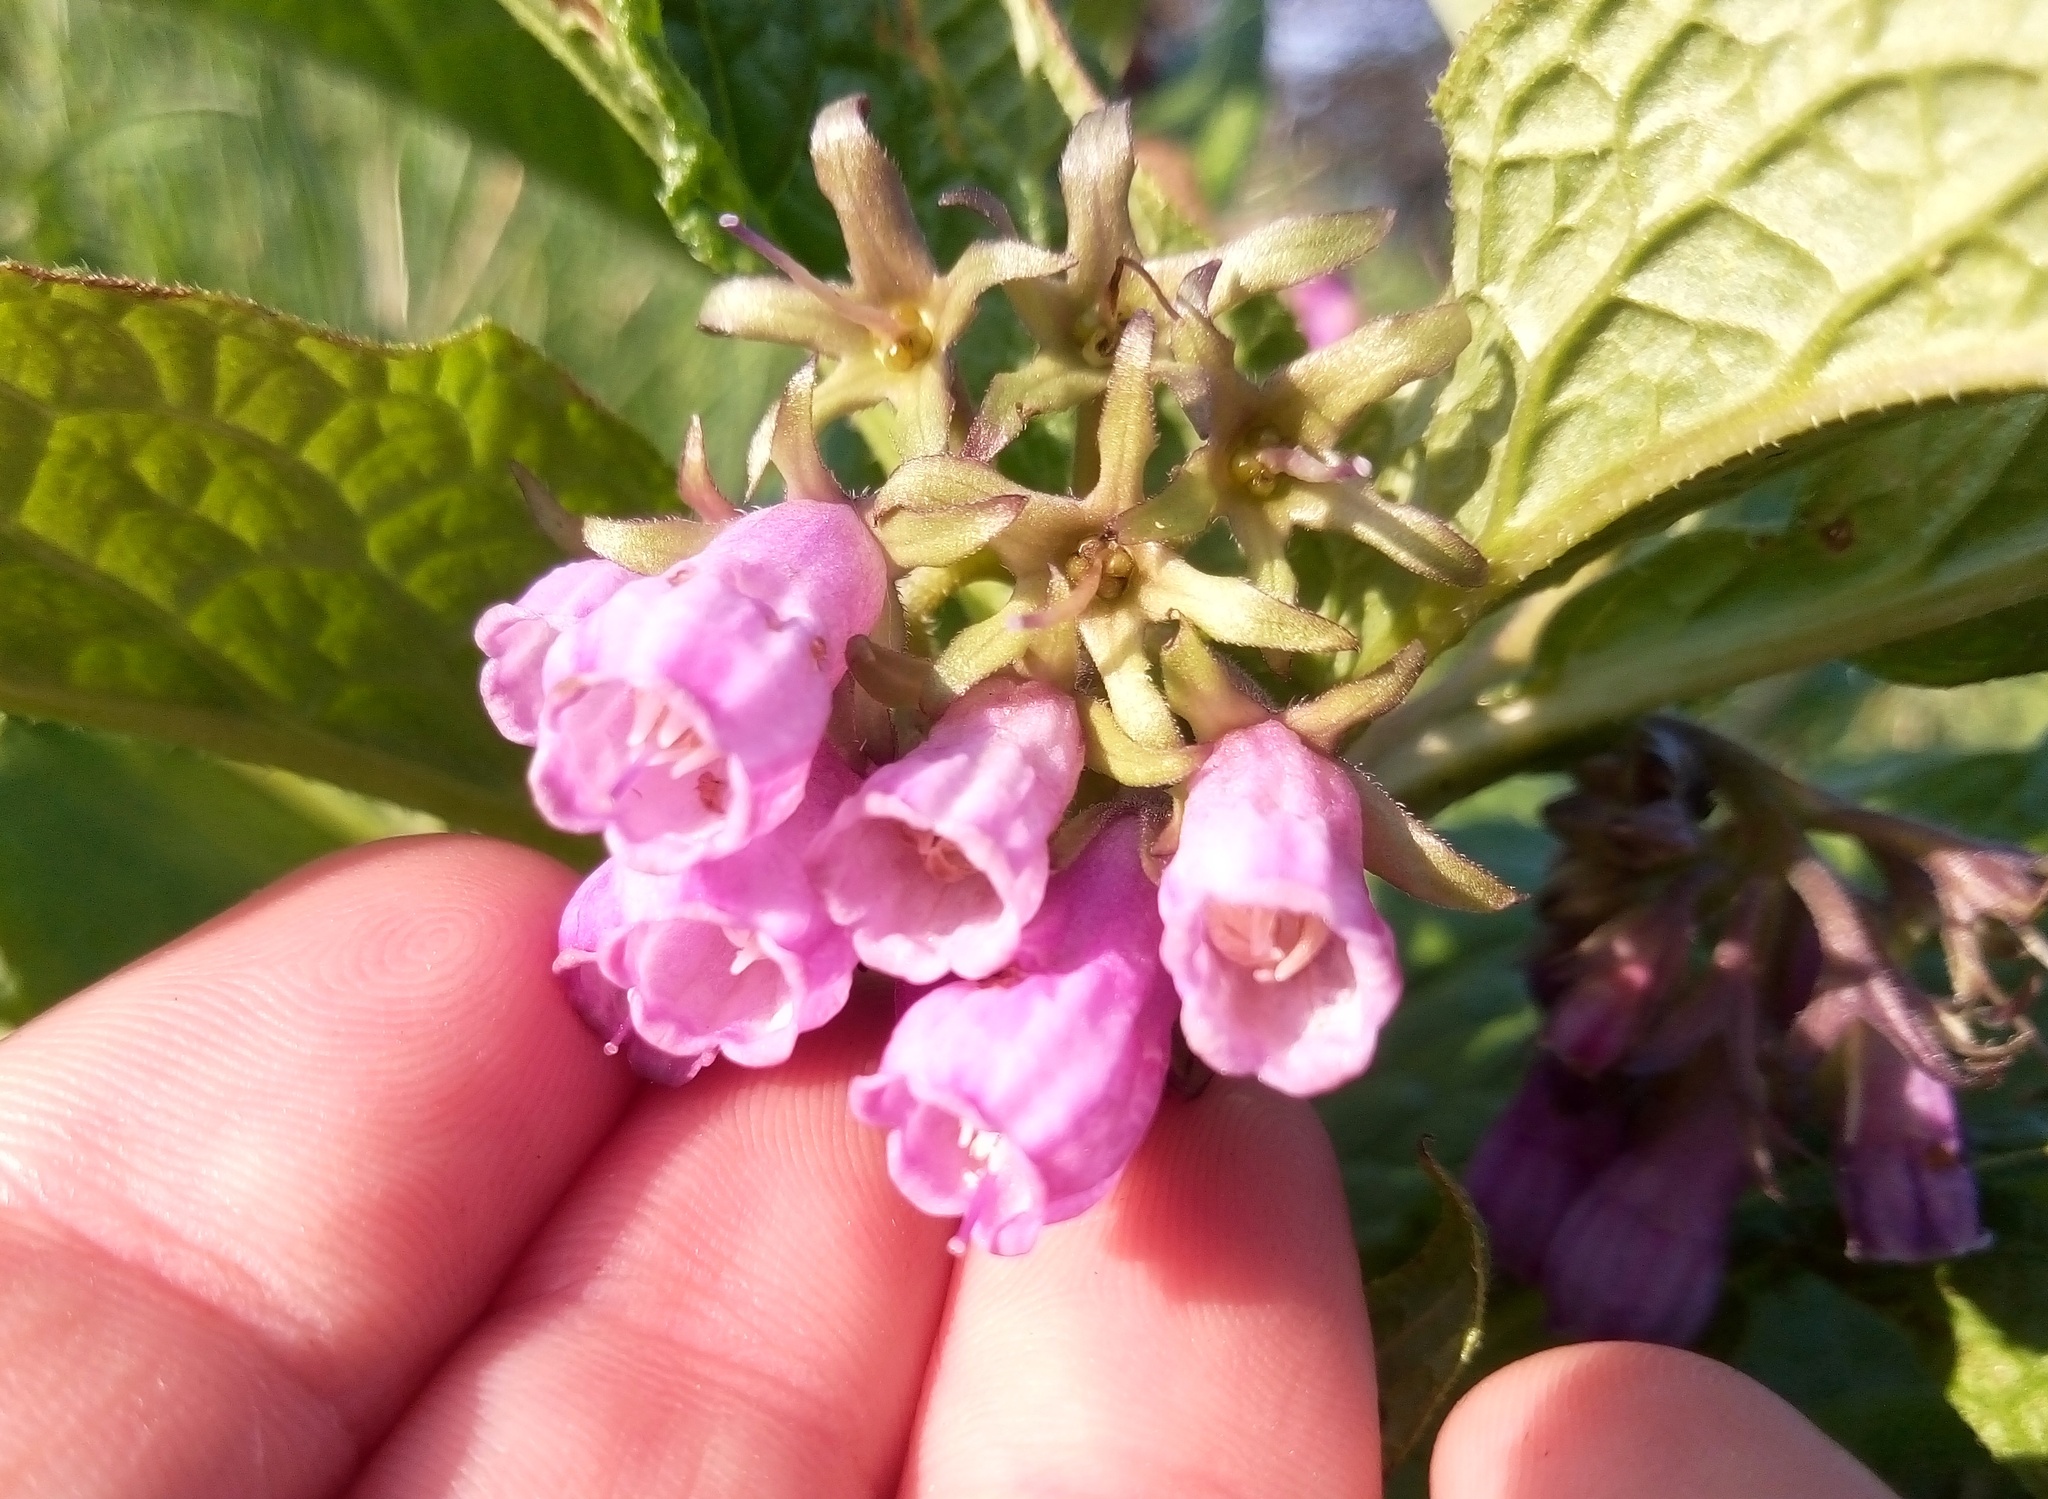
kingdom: Plantae
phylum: Tracheophyta
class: Magnoliopsida
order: Boraginales
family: Boraginaceae
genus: Symphytum
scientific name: Symphytum officinale
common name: Common comfrey
